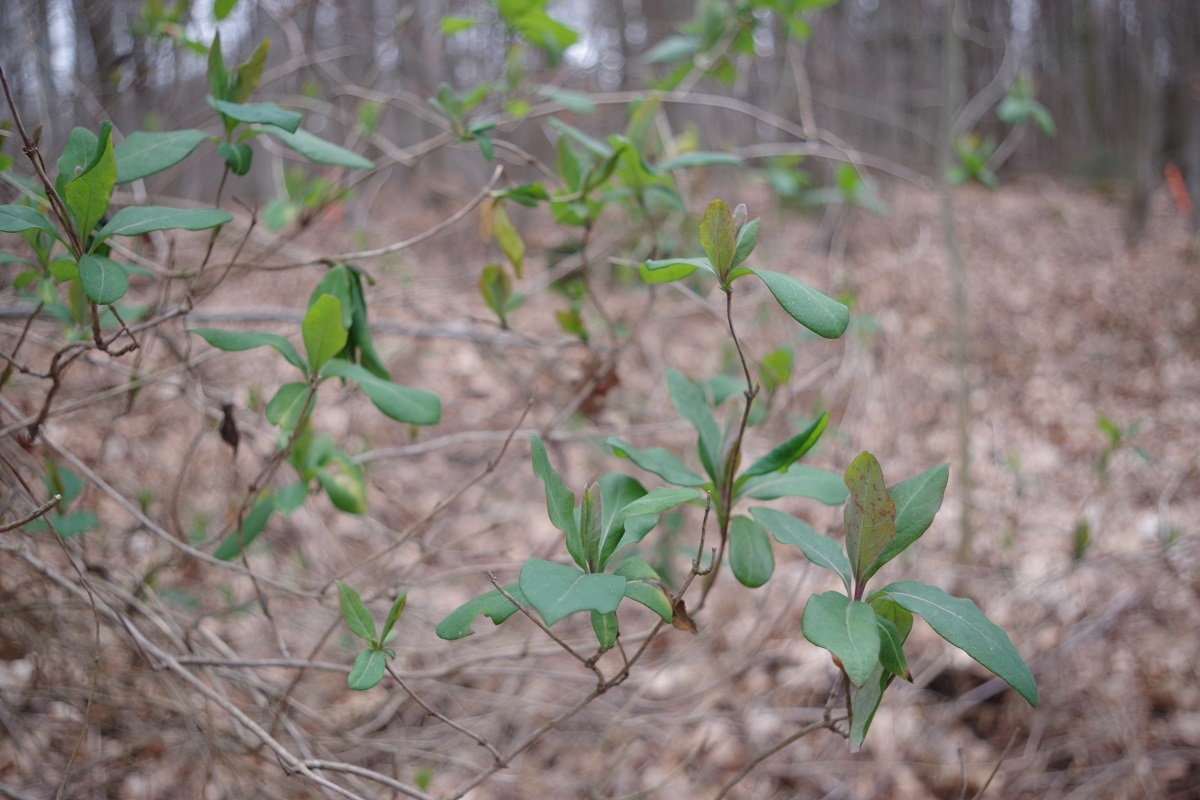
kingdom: Plantae
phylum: Tracheophyta
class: Magnoliopsida
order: Dipsacales
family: Caprifoliaceae
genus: Lonicera
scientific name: Lonicera periclymenum
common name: European honeysuckle
